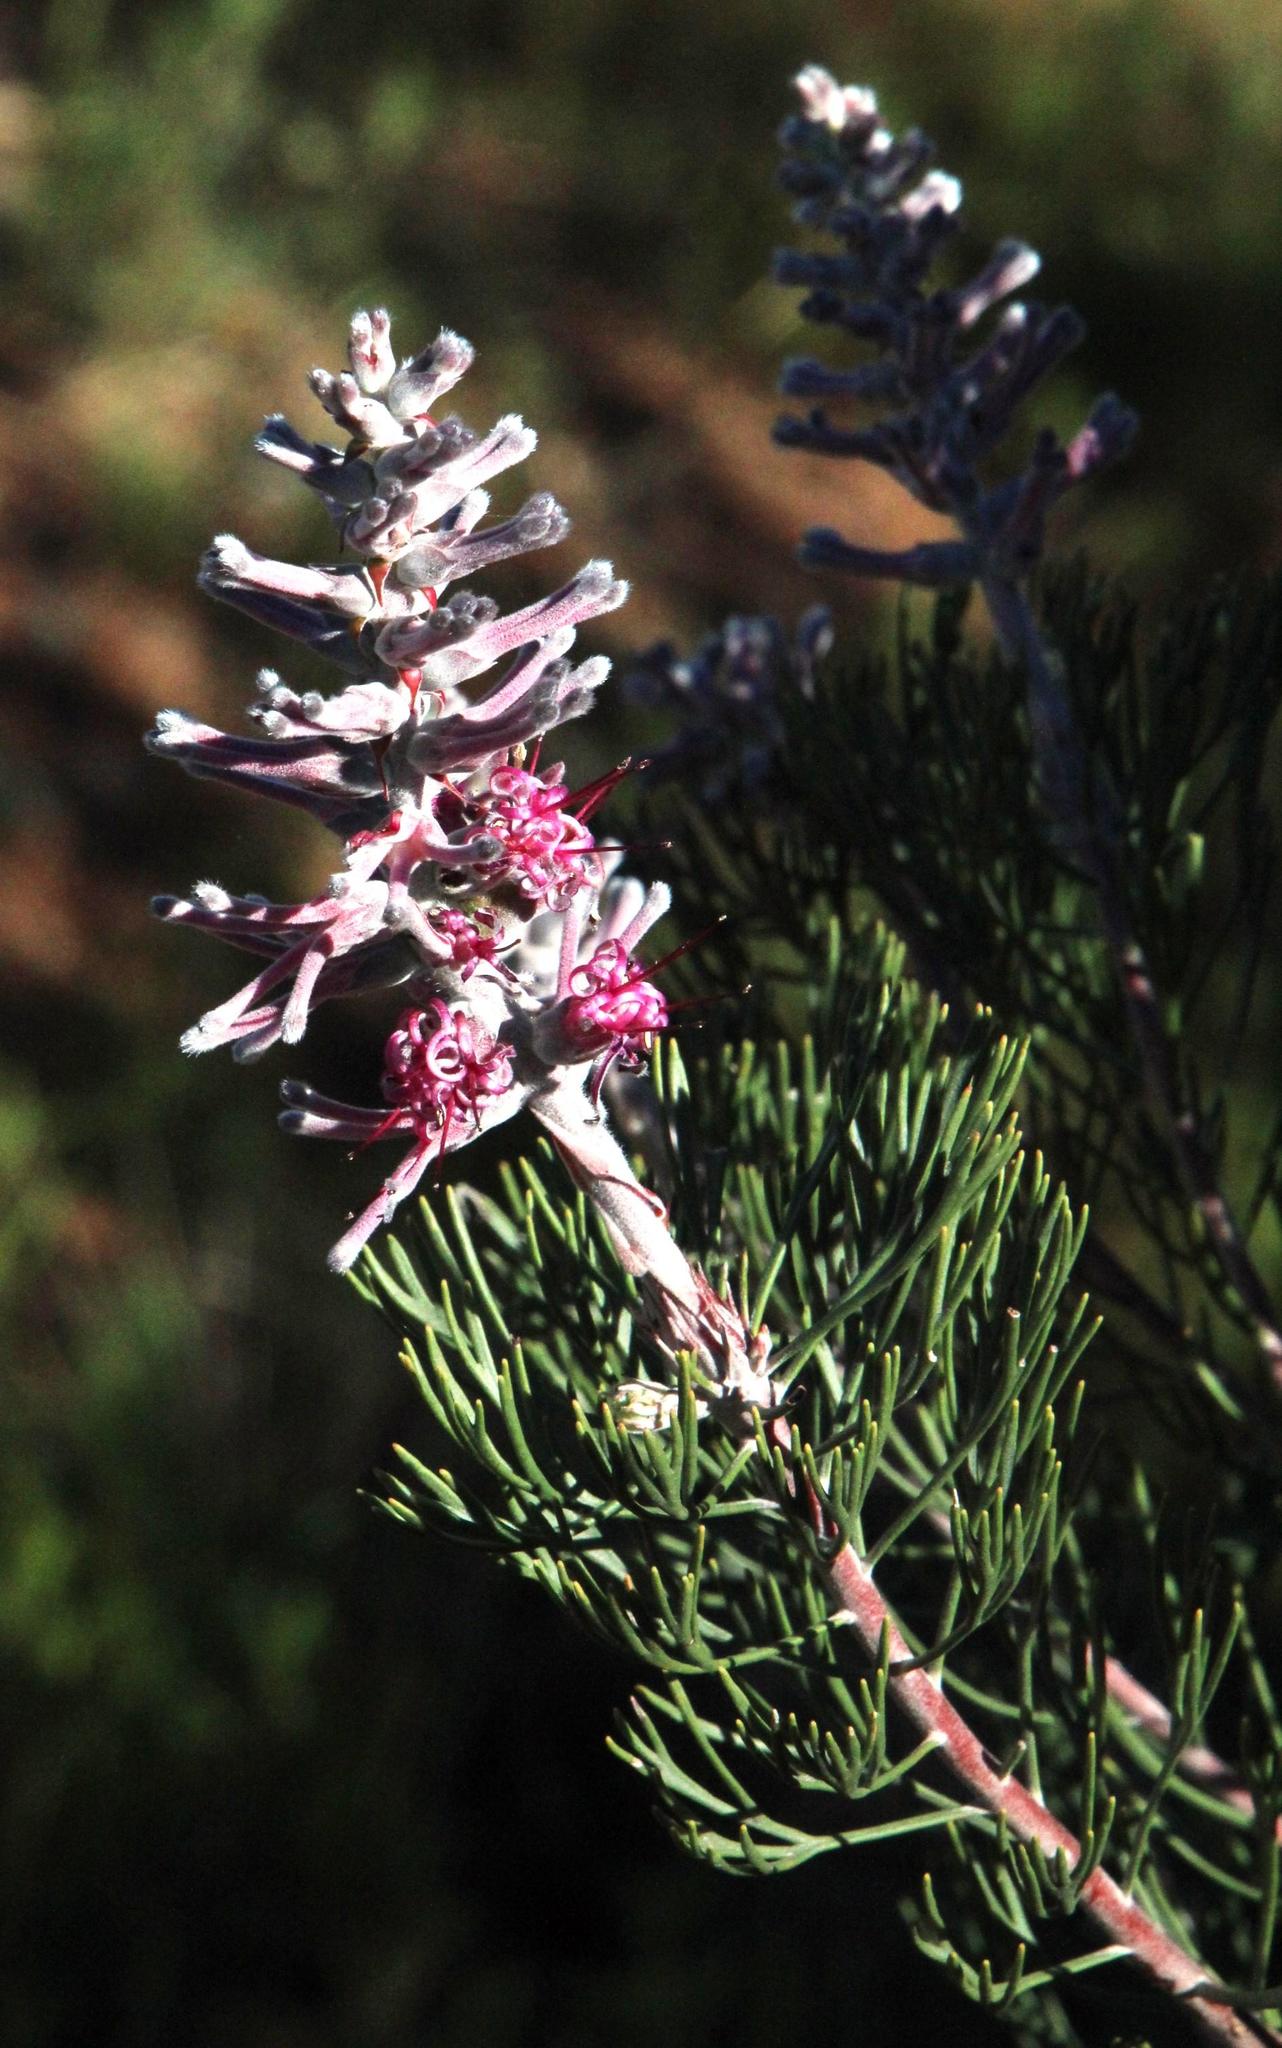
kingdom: Plantae
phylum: Tracheophyta
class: Magnoliopsida
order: Proteales
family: Proteaceae
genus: Paranomus
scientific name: Paranomus bracteolaris
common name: Bokkeveld tree sceptre
